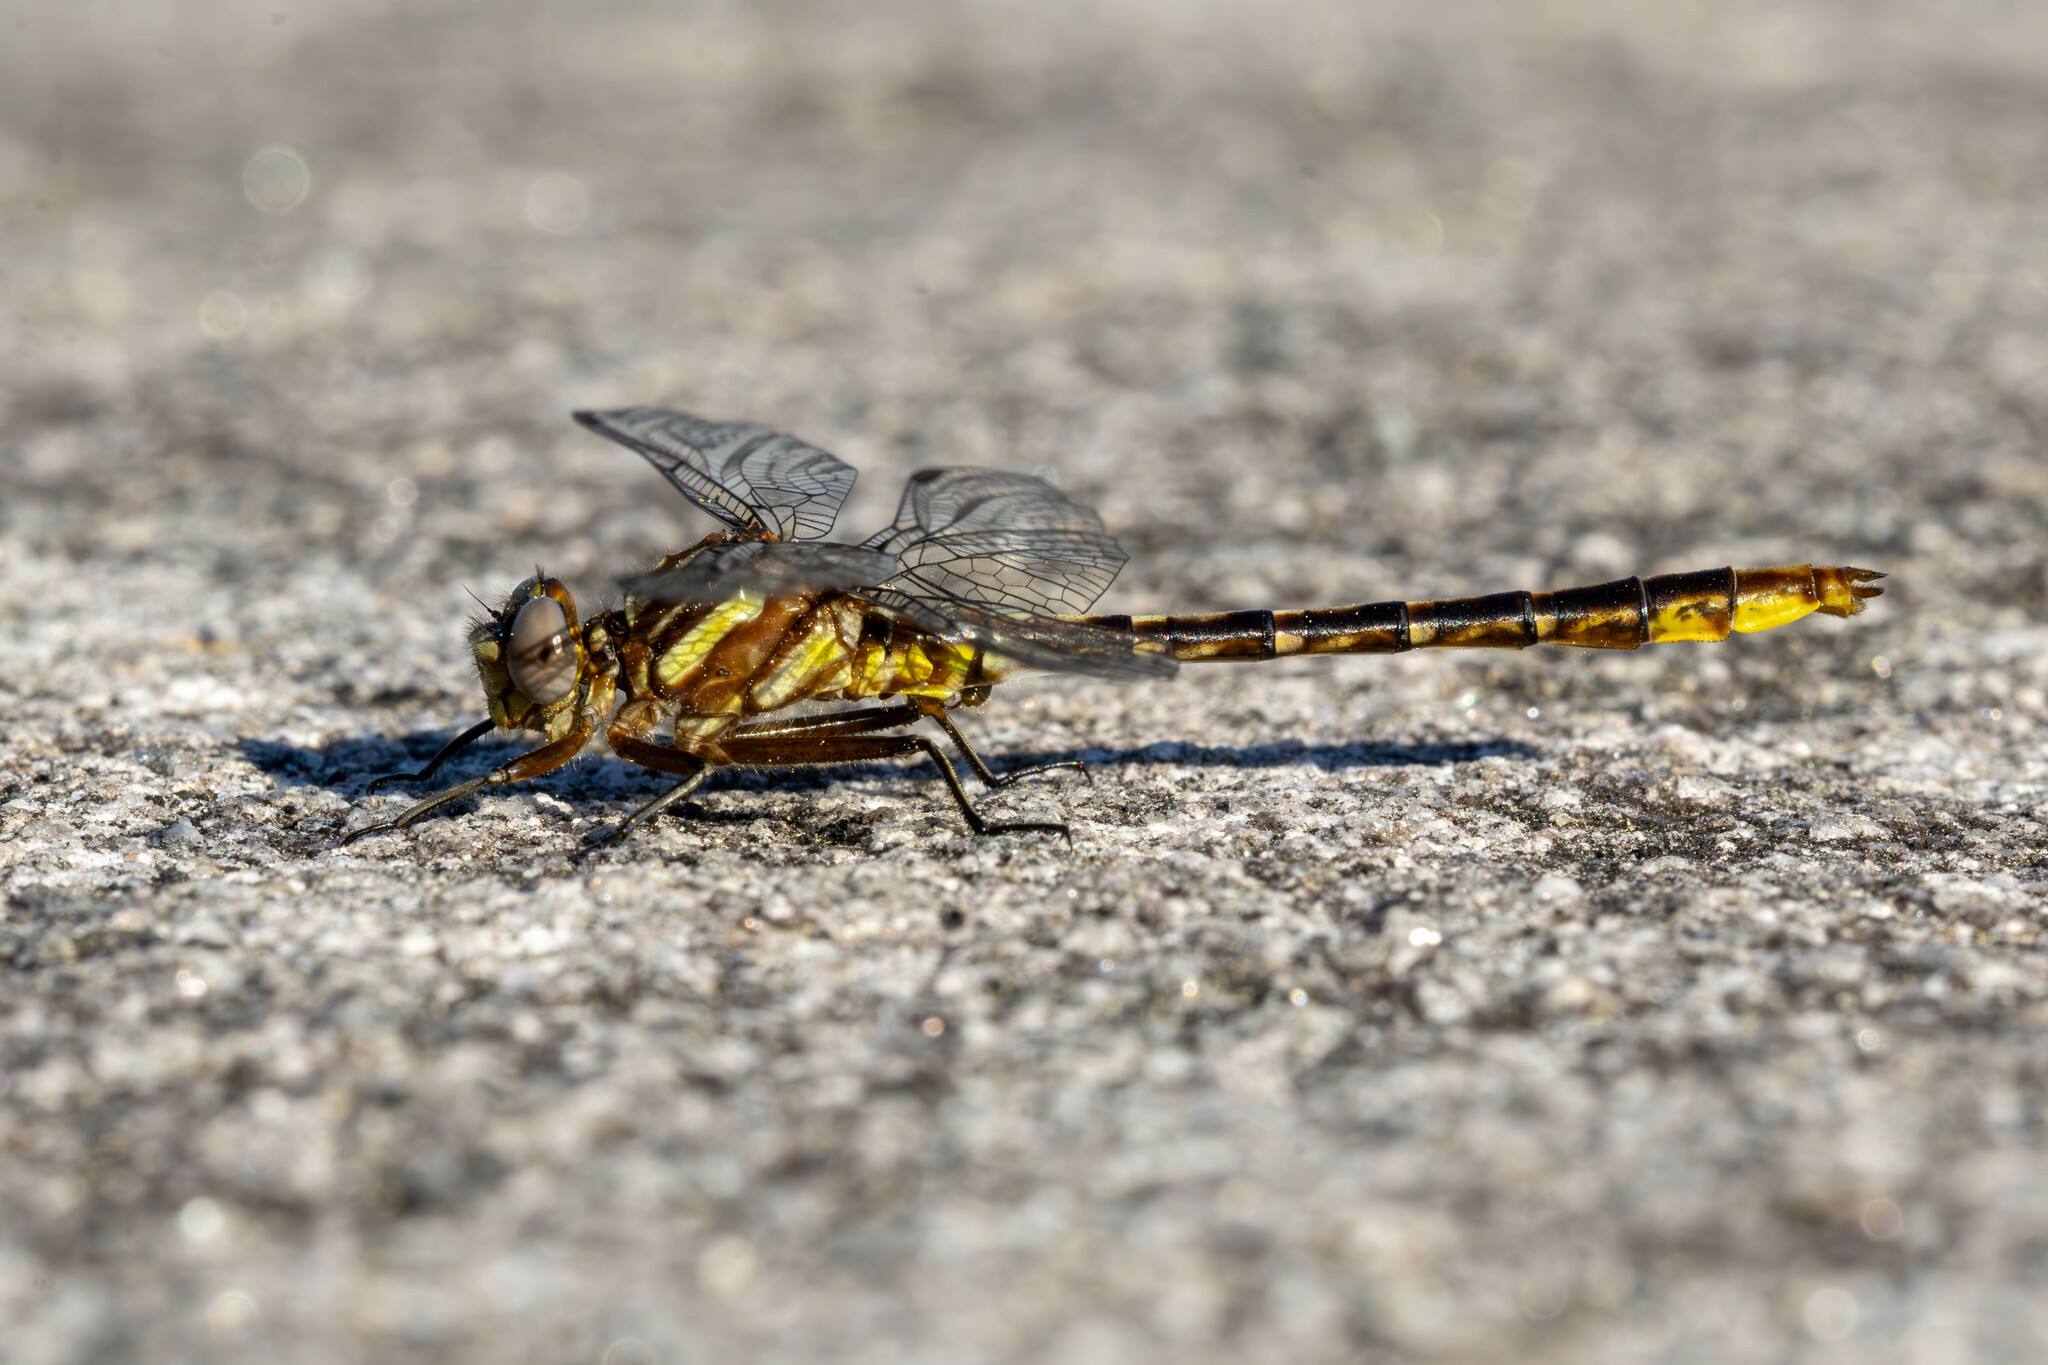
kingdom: Animalia
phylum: Arthropoda
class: Insecta
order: Odonata
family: Gomphidae
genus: Phanogomphus
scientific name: Phanogomphus exilis
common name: Lancet clubtail
